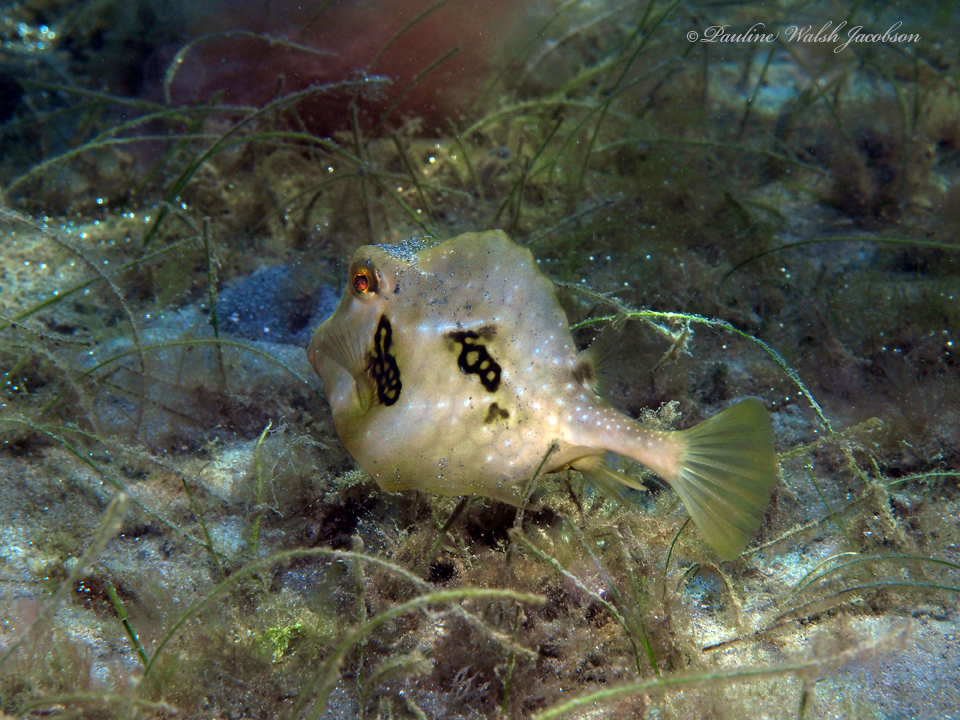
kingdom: Animalia
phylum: Chordata
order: Tetraodontiformes
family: Ostraciidae
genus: Lactophrys
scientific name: Lactophrys trigonus
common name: Buffalo trunkfish
